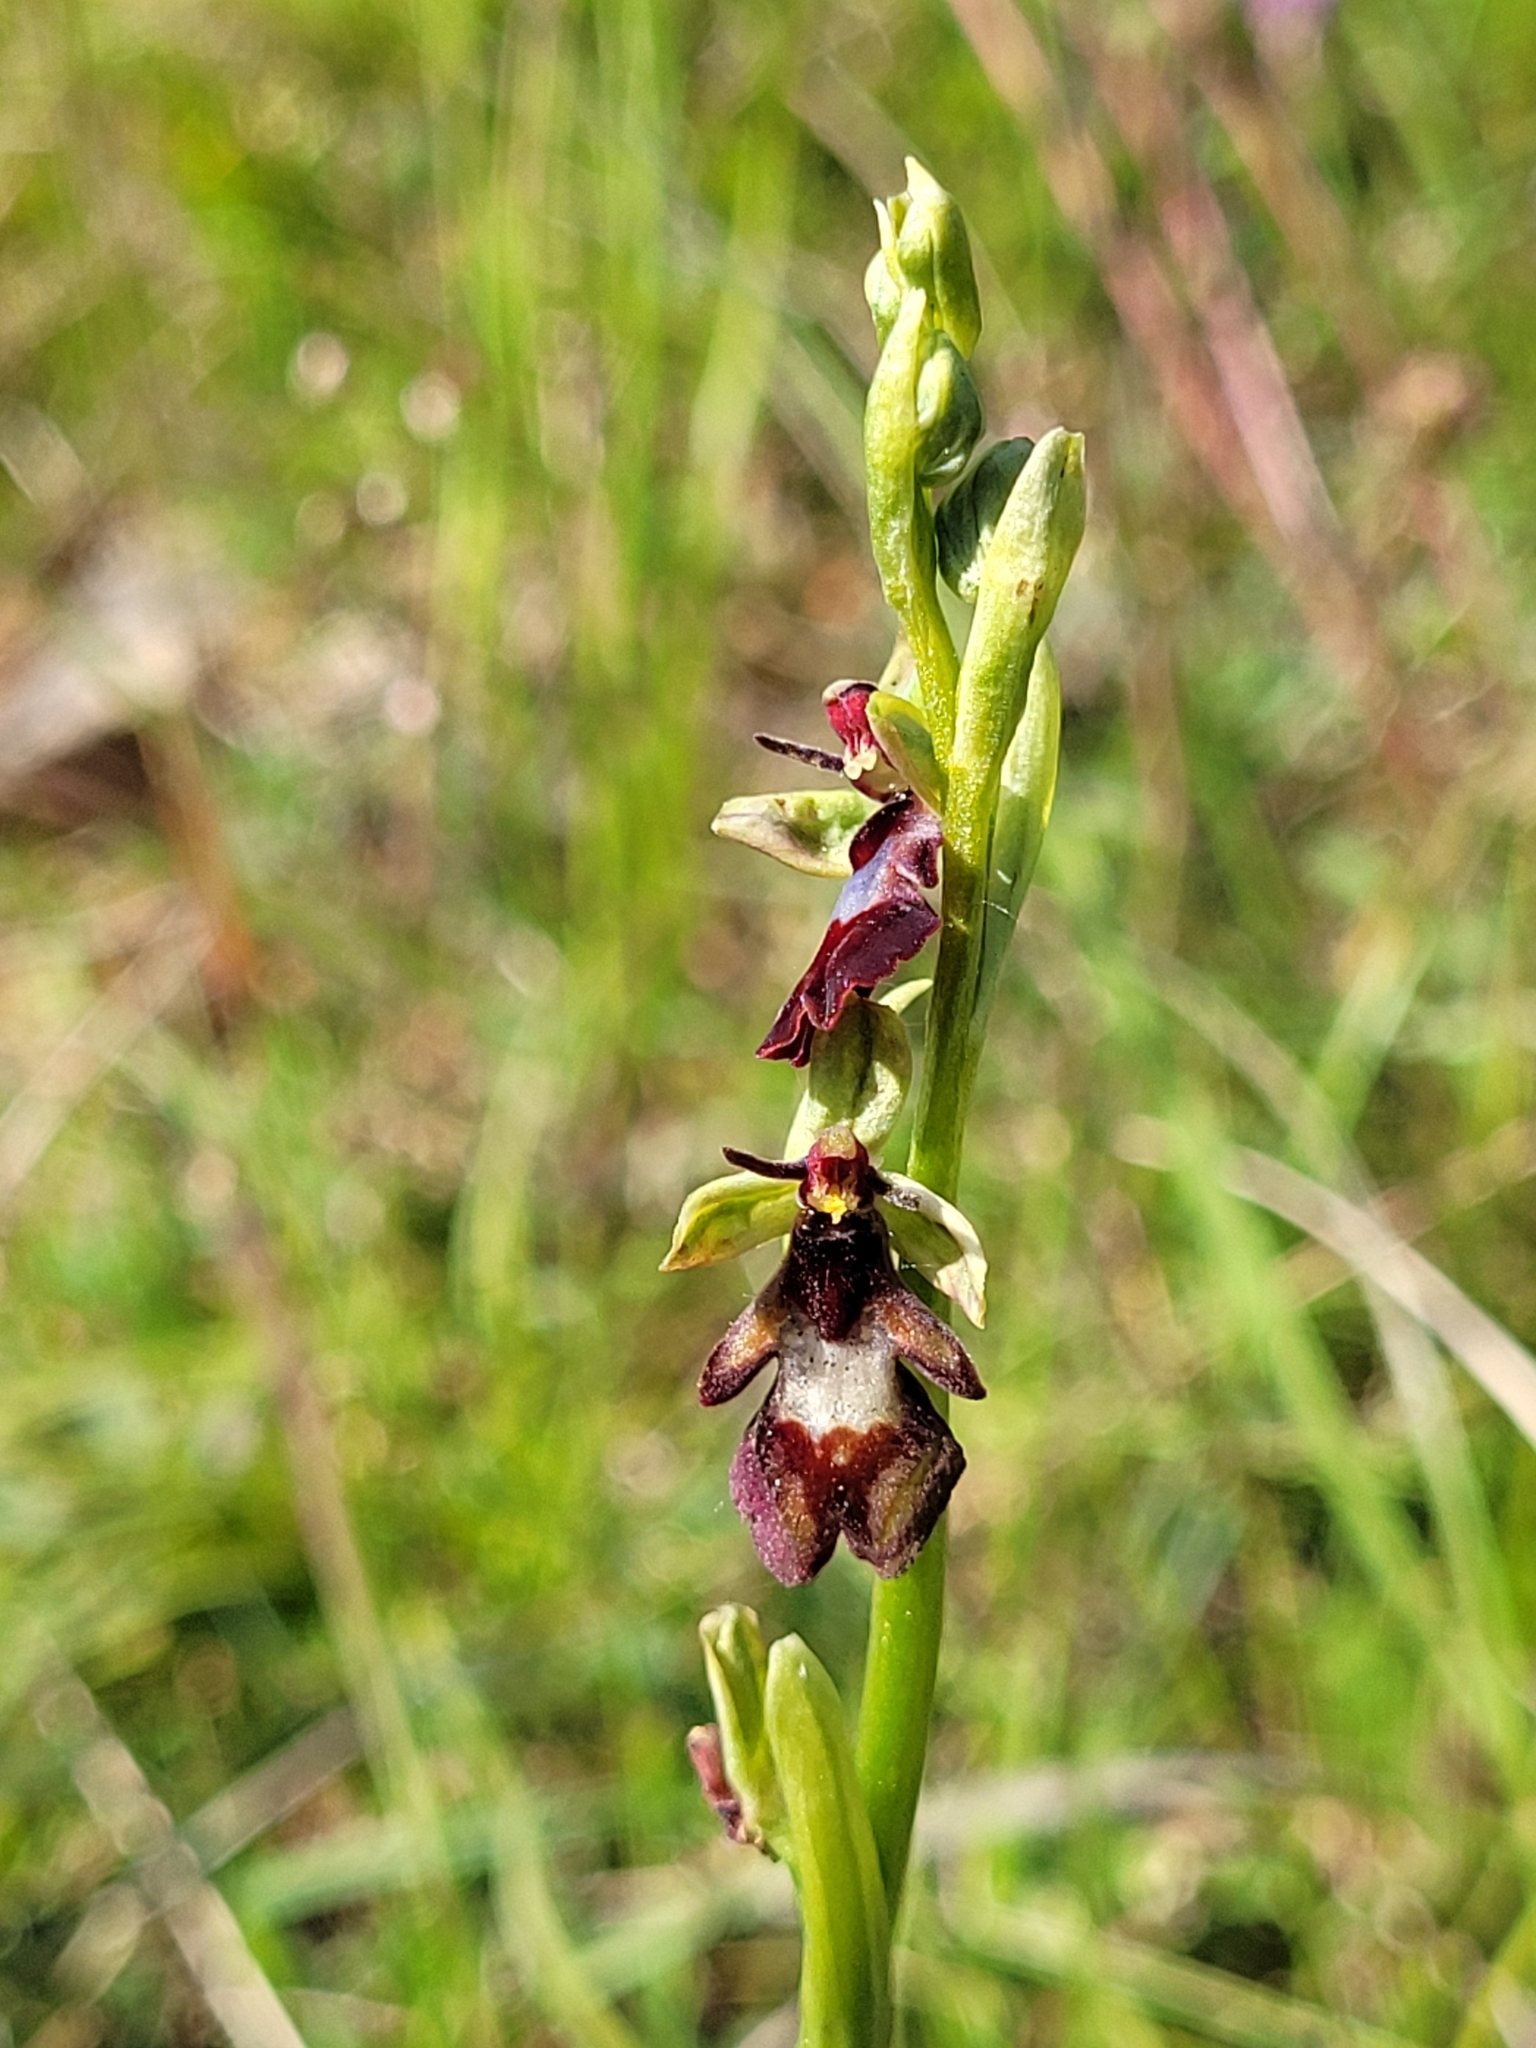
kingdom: Plantae
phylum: Tracheophyta
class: Liliopsida
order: Asparagales
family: Orchidaceae
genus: Ophrys
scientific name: Ophrys insectifera
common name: Fly orchid
